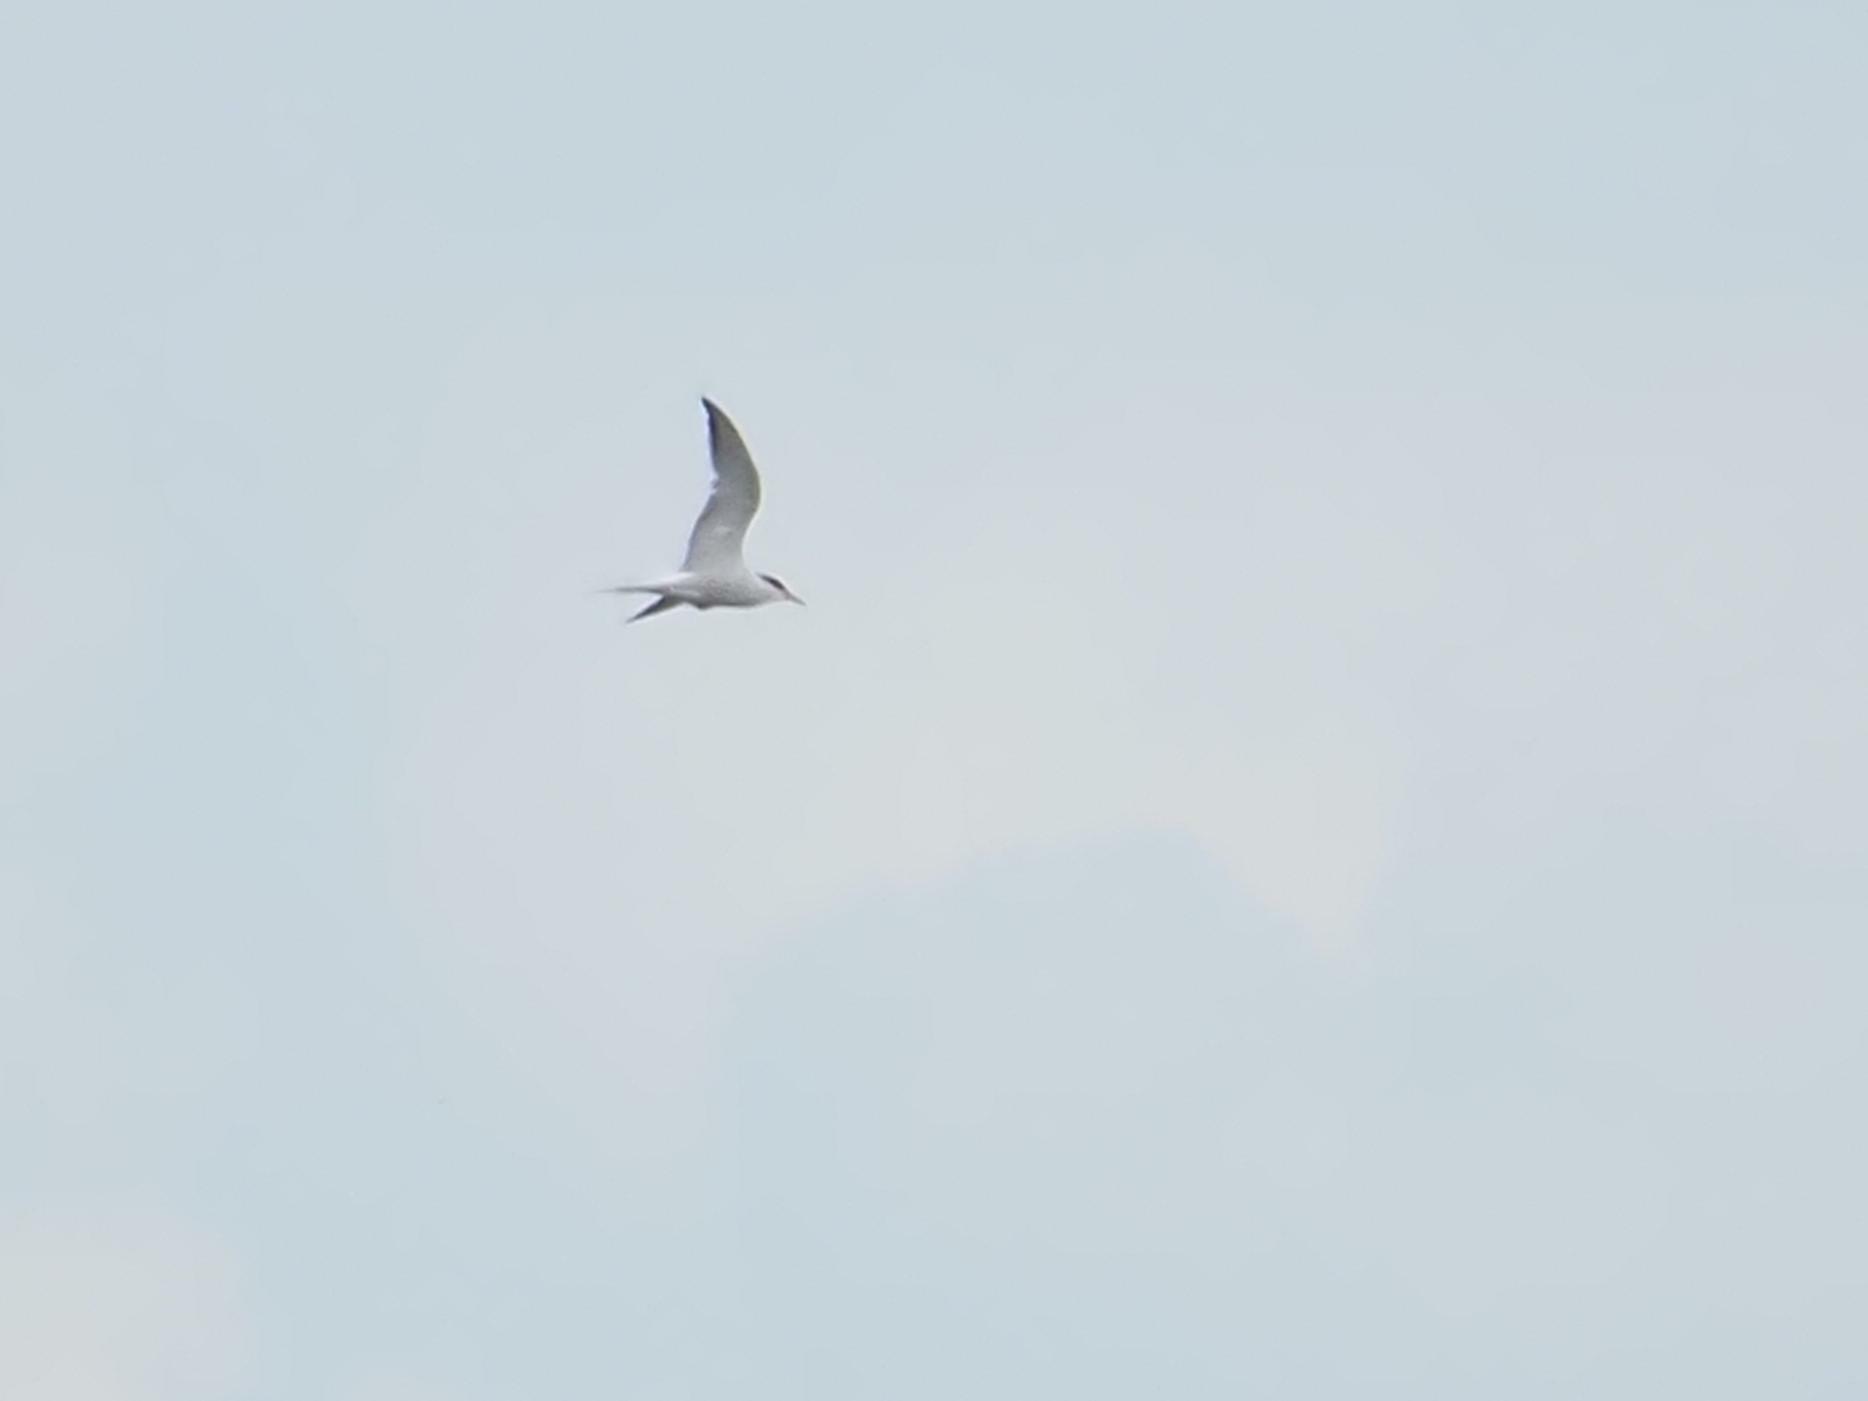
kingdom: Animalia
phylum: Chordata
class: Aves
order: Charadriiformes
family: Laridae
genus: Sterna
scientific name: Sterna hirundo
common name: Common tern
